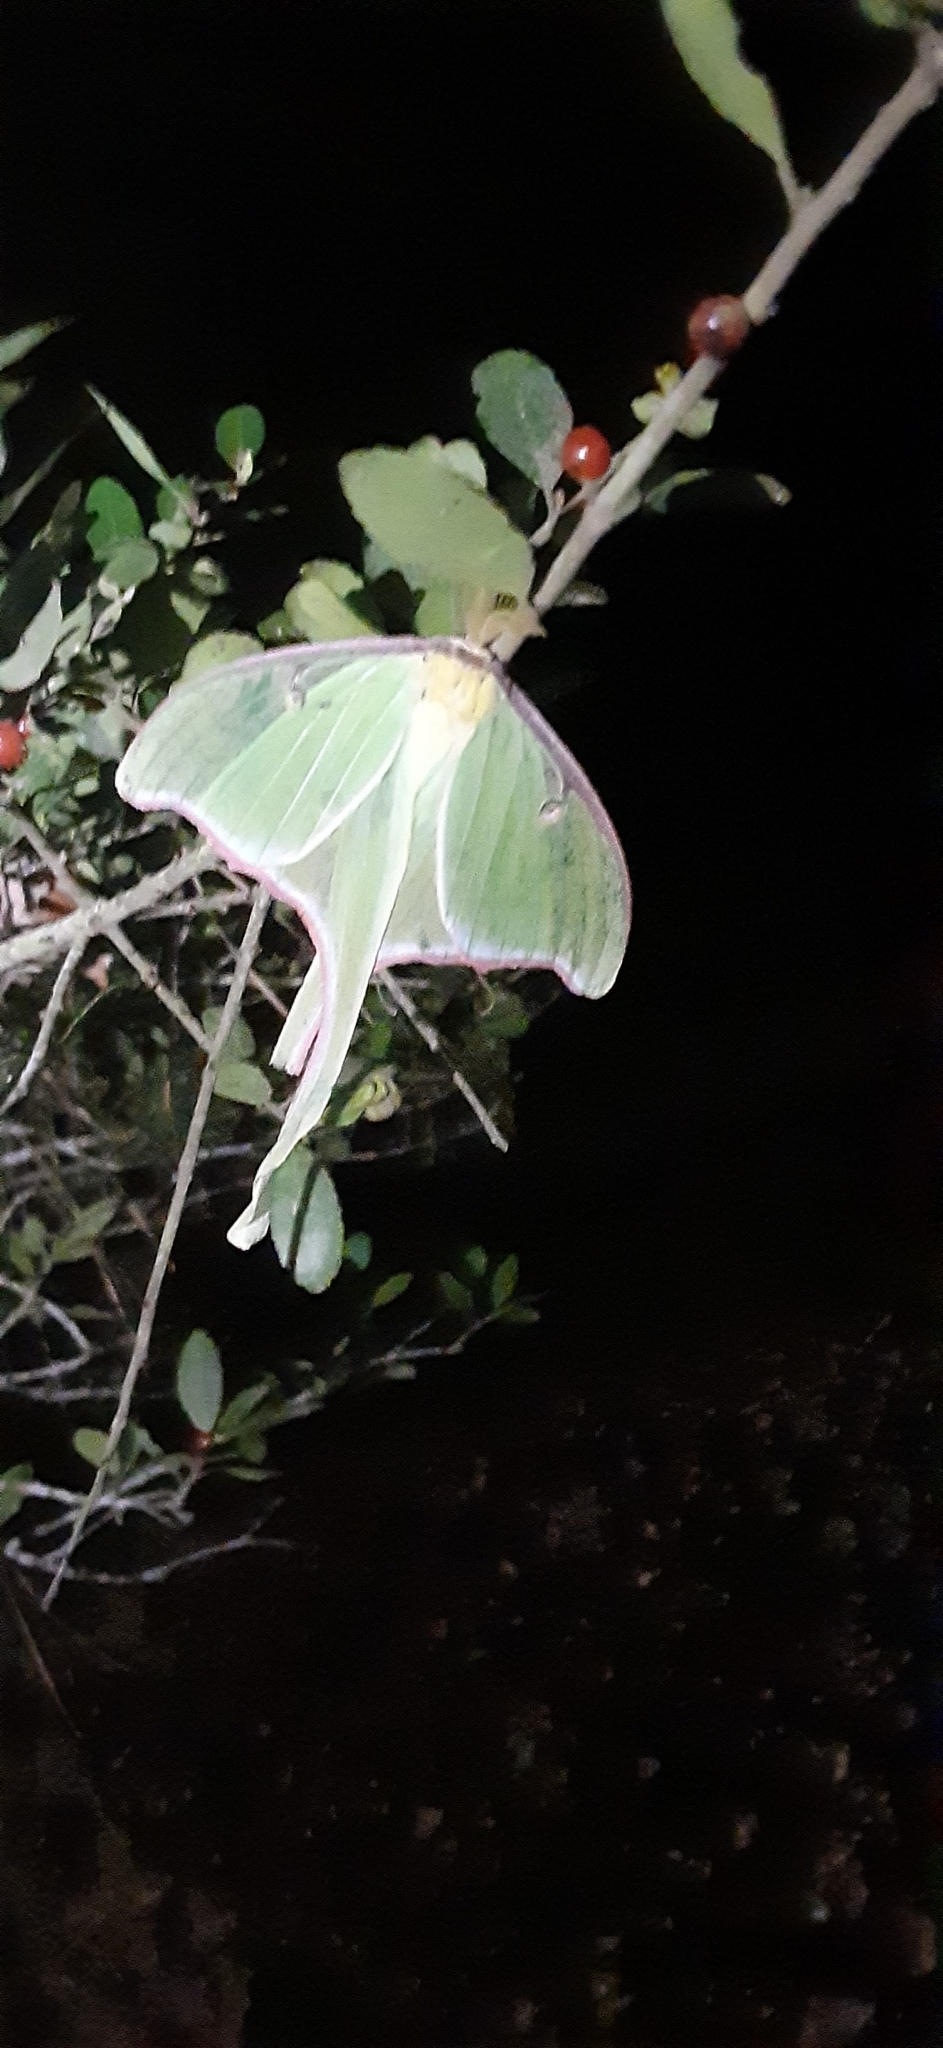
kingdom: Animalia
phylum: Arthropoda
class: Insecta
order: Lepidoptera
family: Saturniidae
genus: Actias
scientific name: Actias luna
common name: Luna moth
